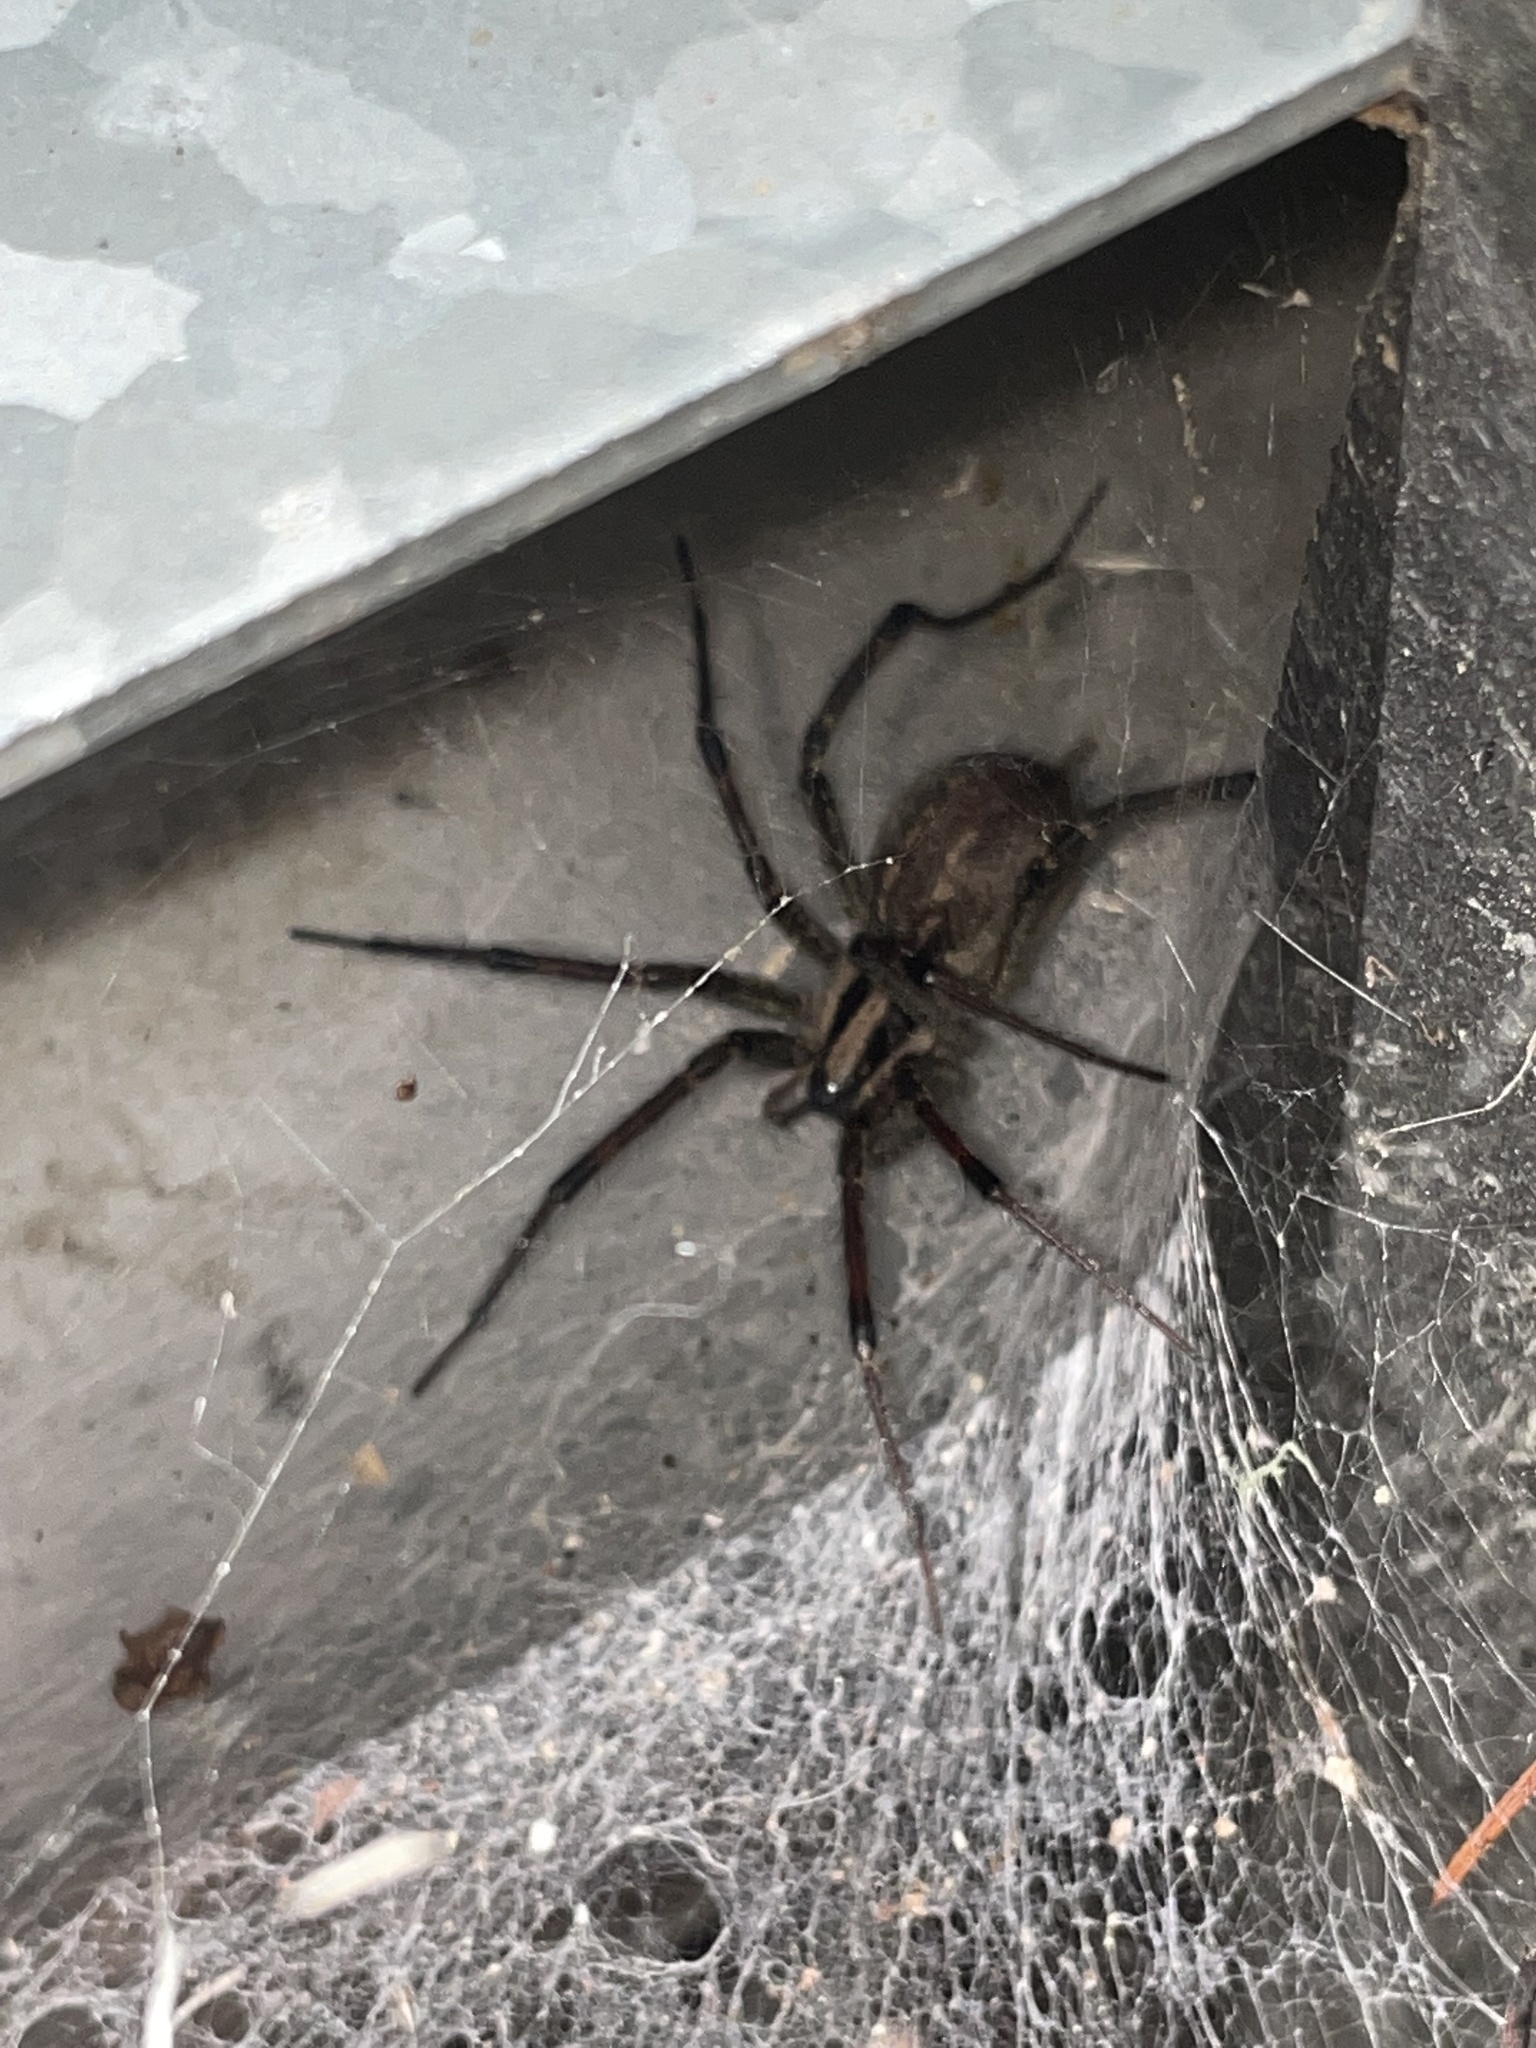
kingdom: Animalia
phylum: Arthropoda
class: Arachnida
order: Araneae
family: Agelenidae
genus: Agelenopsis
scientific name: Agelenopsis
